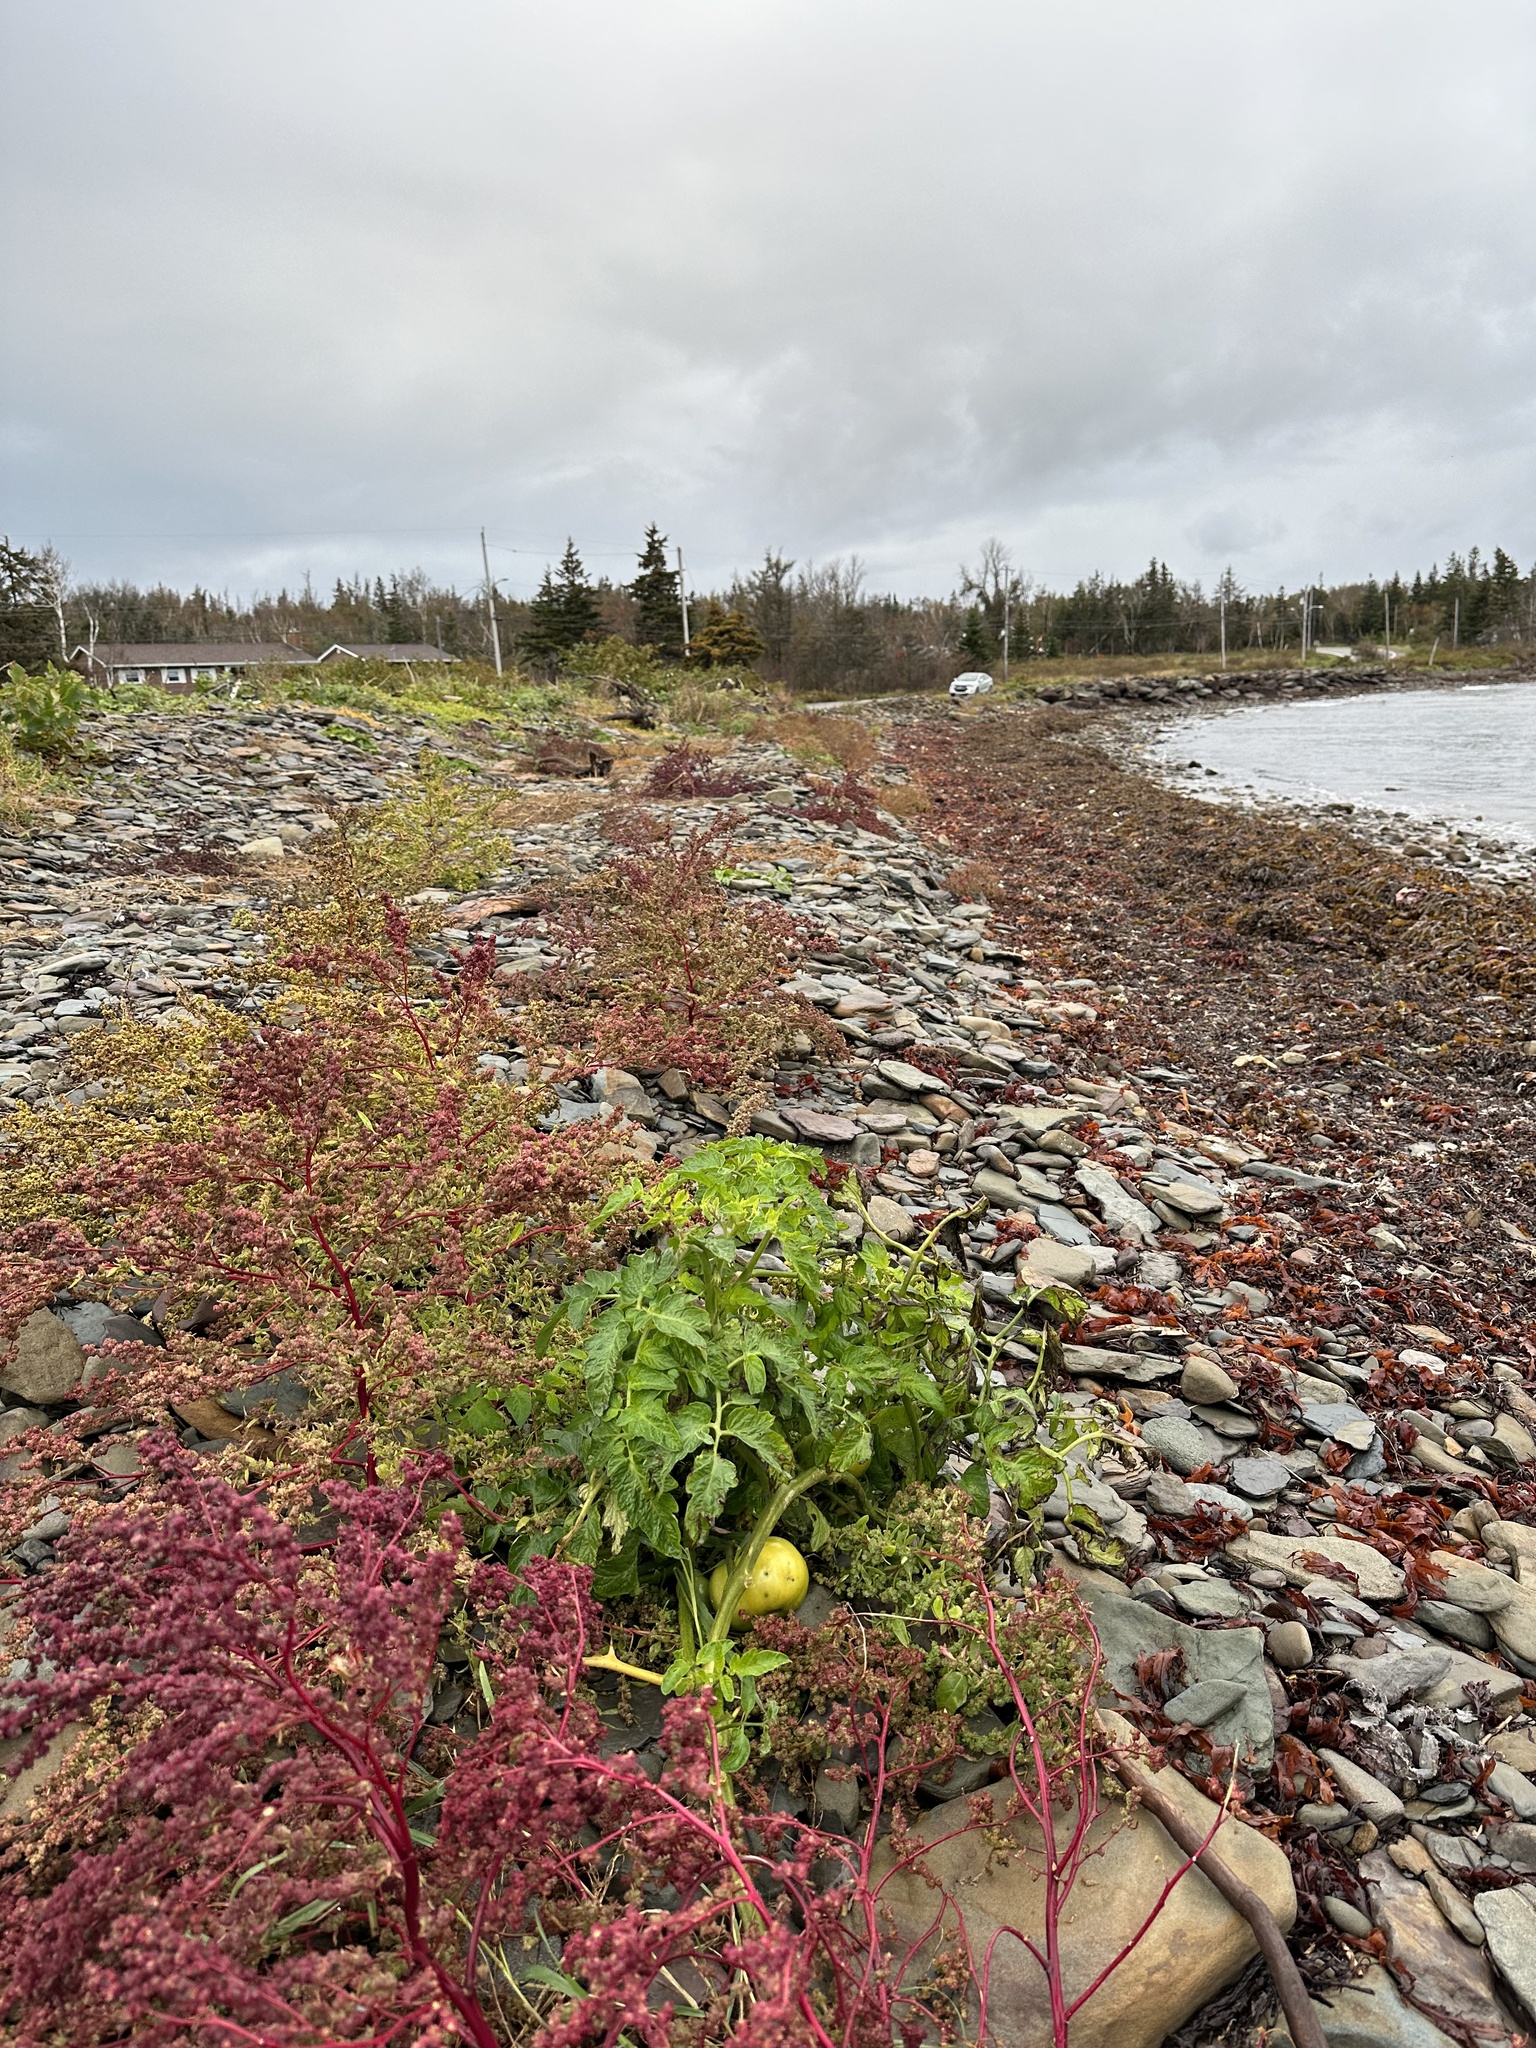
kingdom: Plantae
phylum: Tracheophyta
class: Magnoliopsida
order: Solanales
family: Solanaceae
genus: Solanum
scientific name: Solanum lycopersicum
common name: Garden tomato
